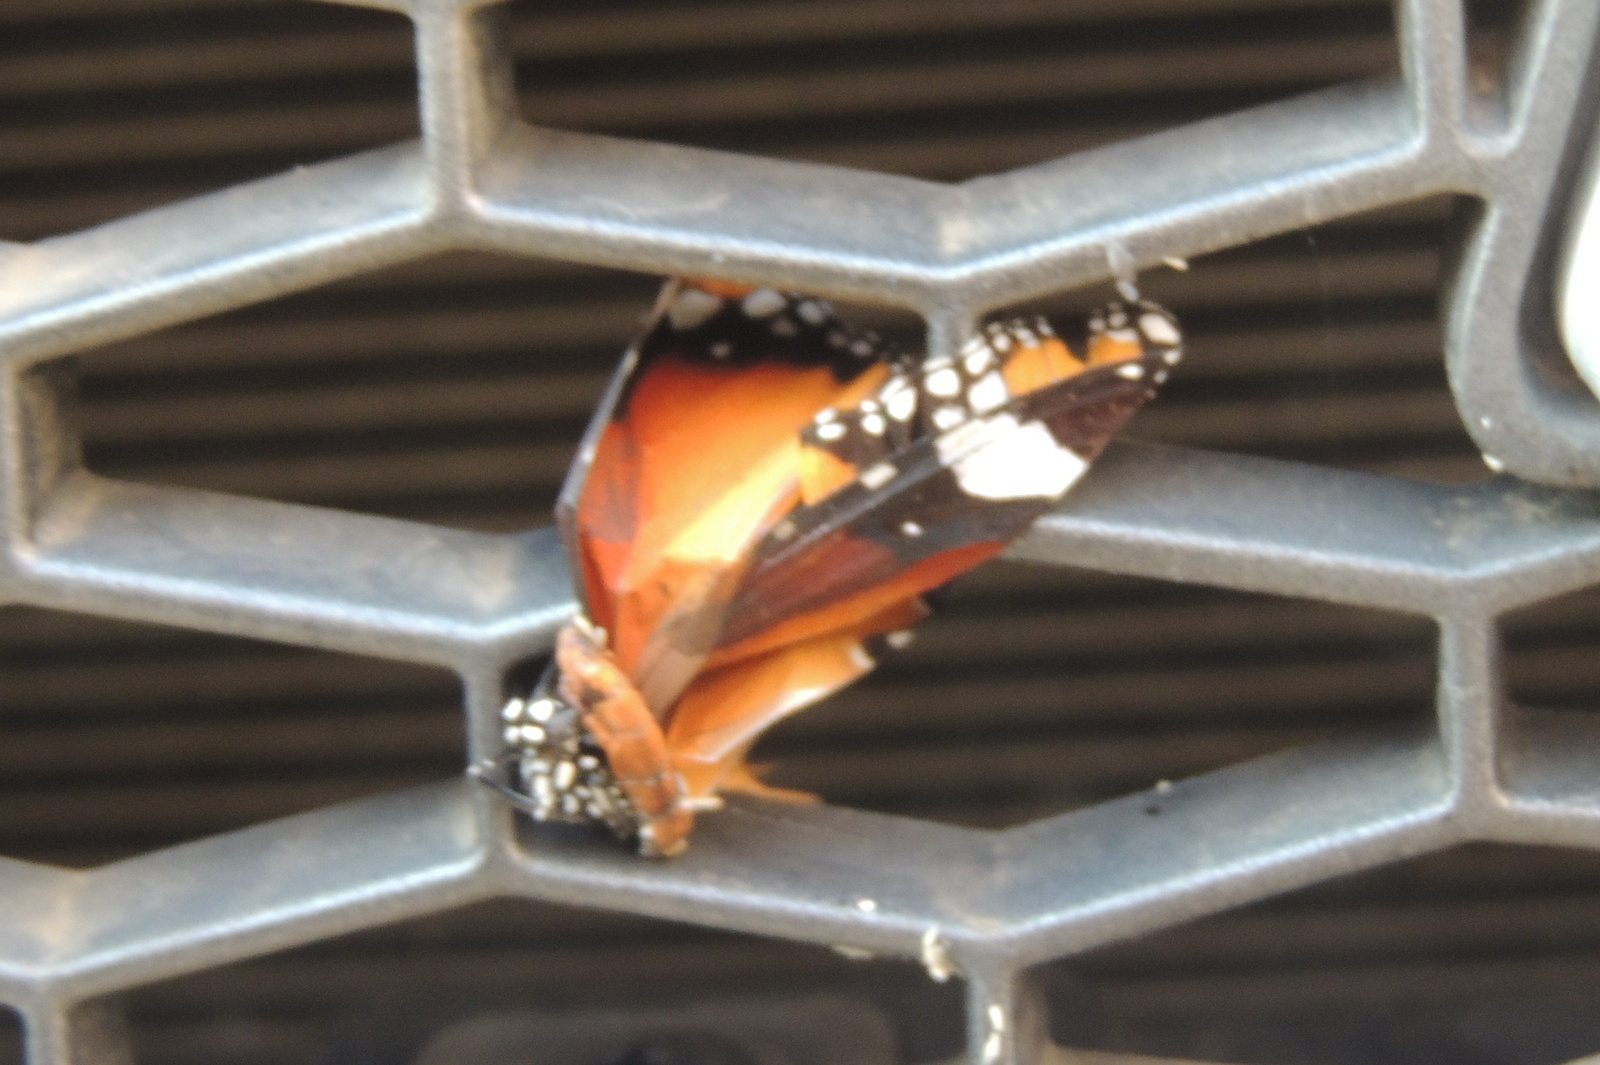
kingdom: Animalia
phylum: Arthropoda
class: Insecta
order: Lepidoptera
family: Nymphalidae
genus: Danaus
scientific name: Danaus chrysippus
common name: Plain tiger
